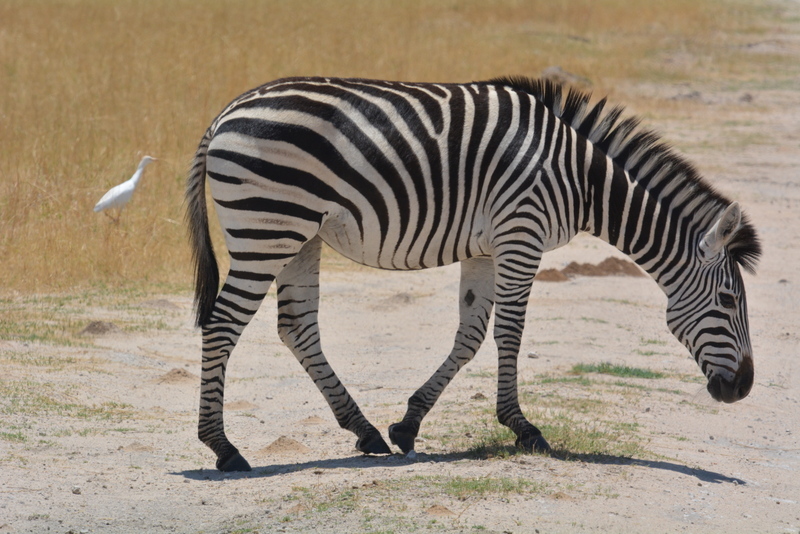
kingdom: Animalia
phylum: Chordata
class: Mammalia
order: Perissodactyla
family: Equidae
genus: Equus
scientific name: Equus quagga
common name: Plains zebra
